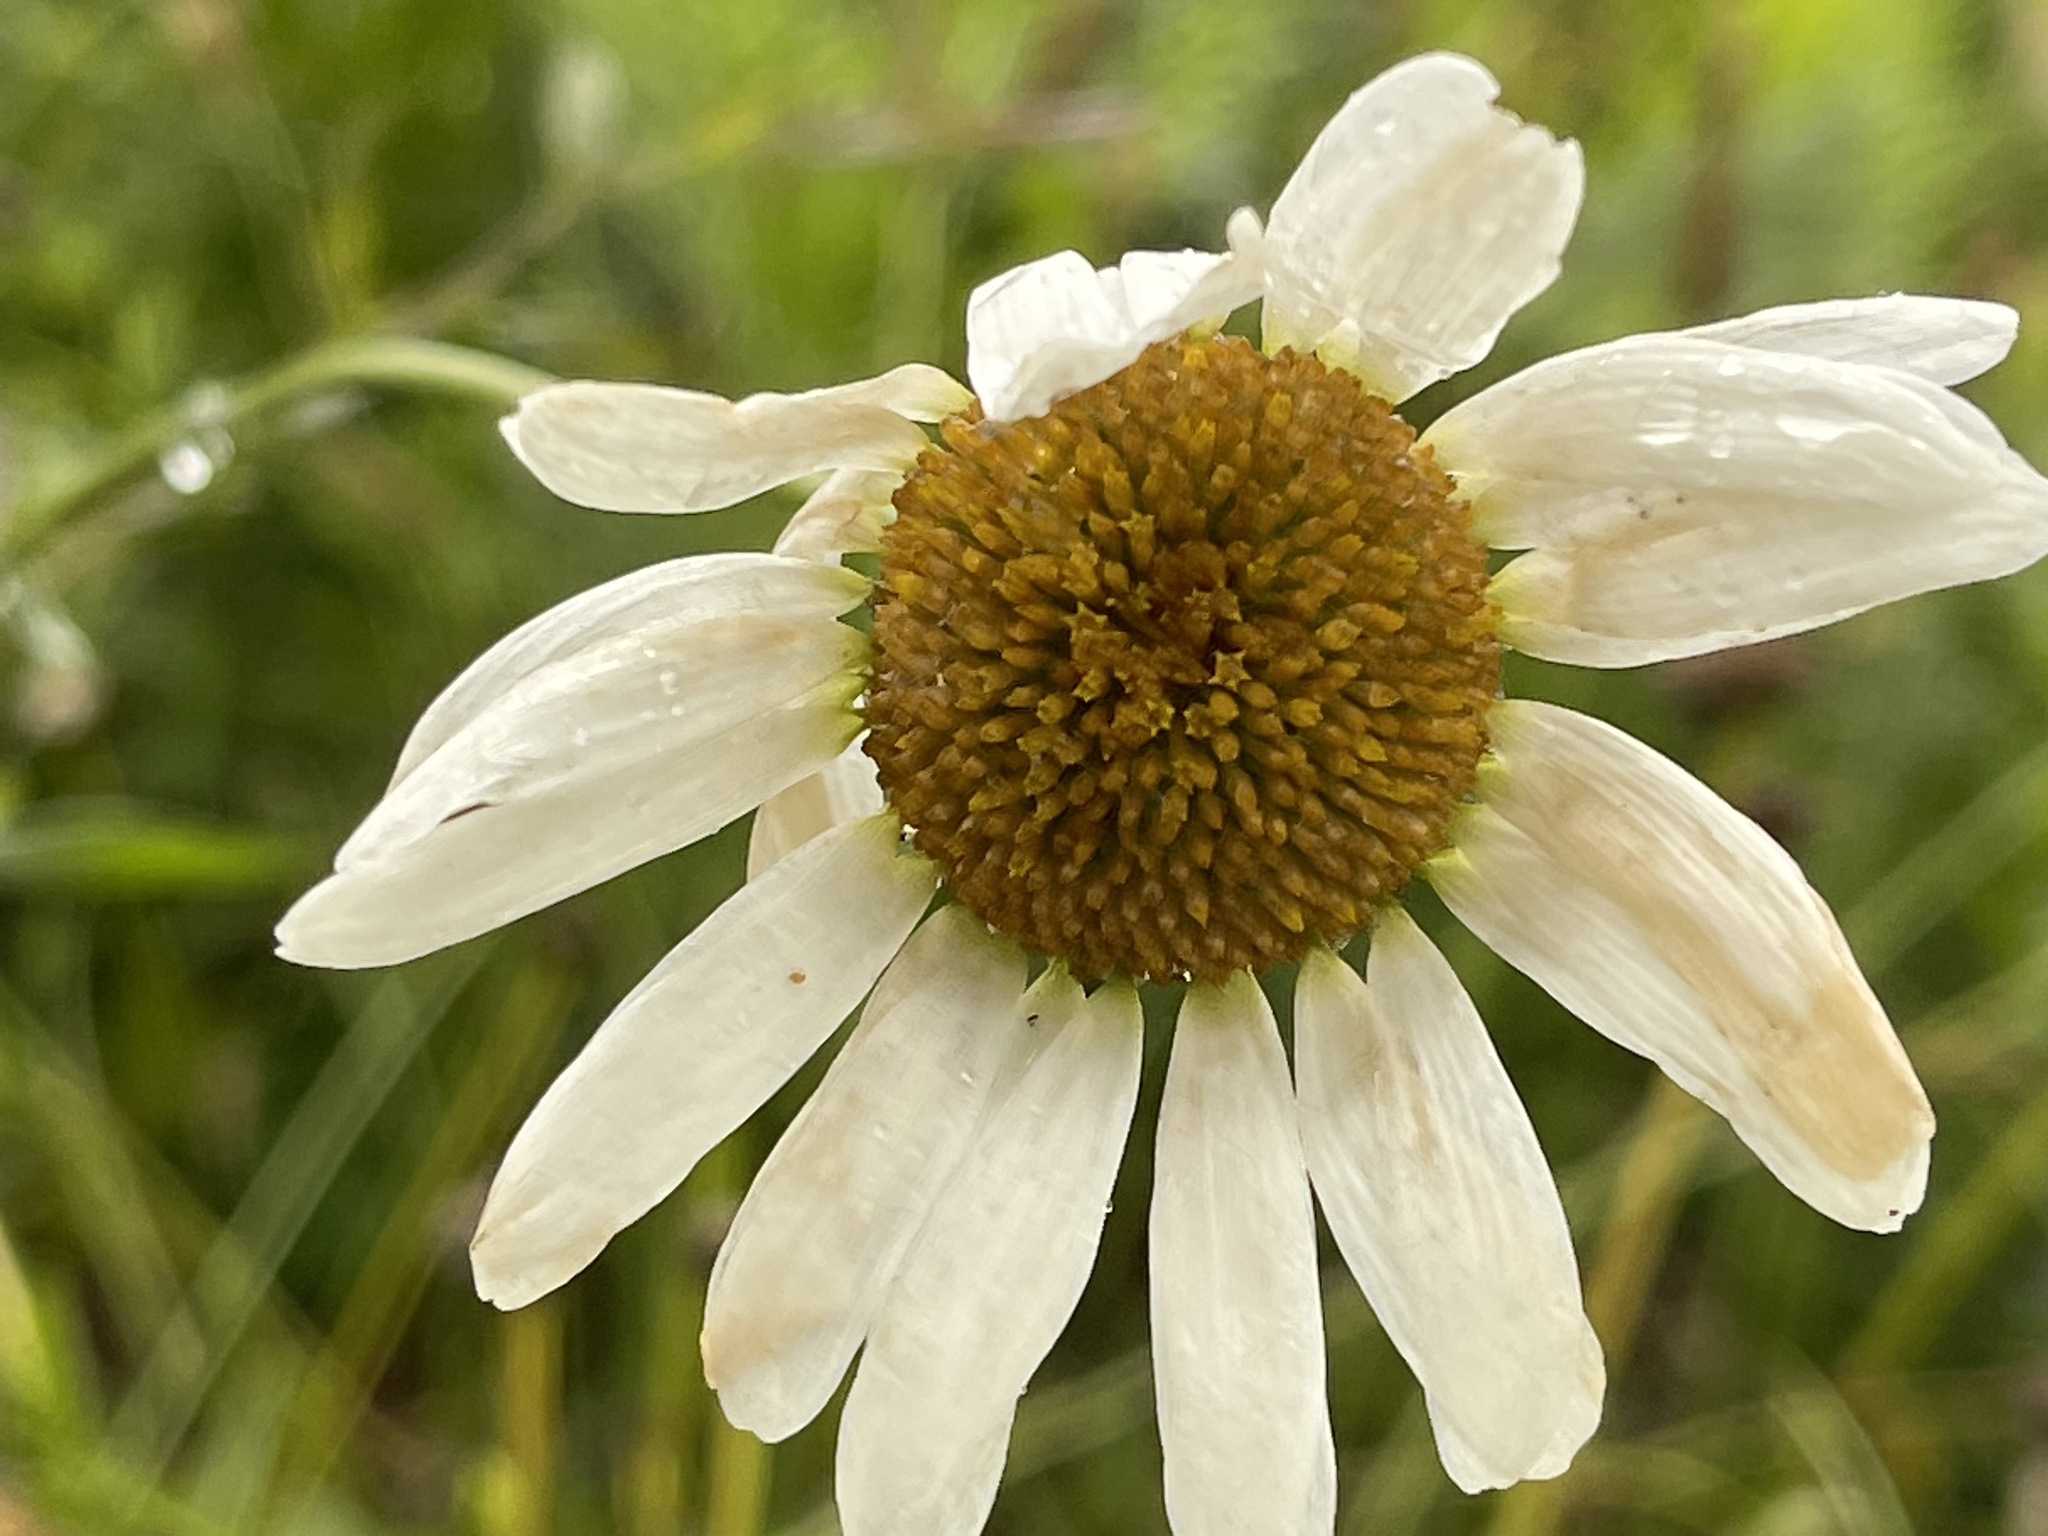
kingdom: Plantae
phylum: Tracheophyta
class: Magnoliopsida
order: Asterales
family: Asteraceae
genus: Leucanthemum
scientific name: Leucanthemum vulgare
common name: Oxeye daisy
